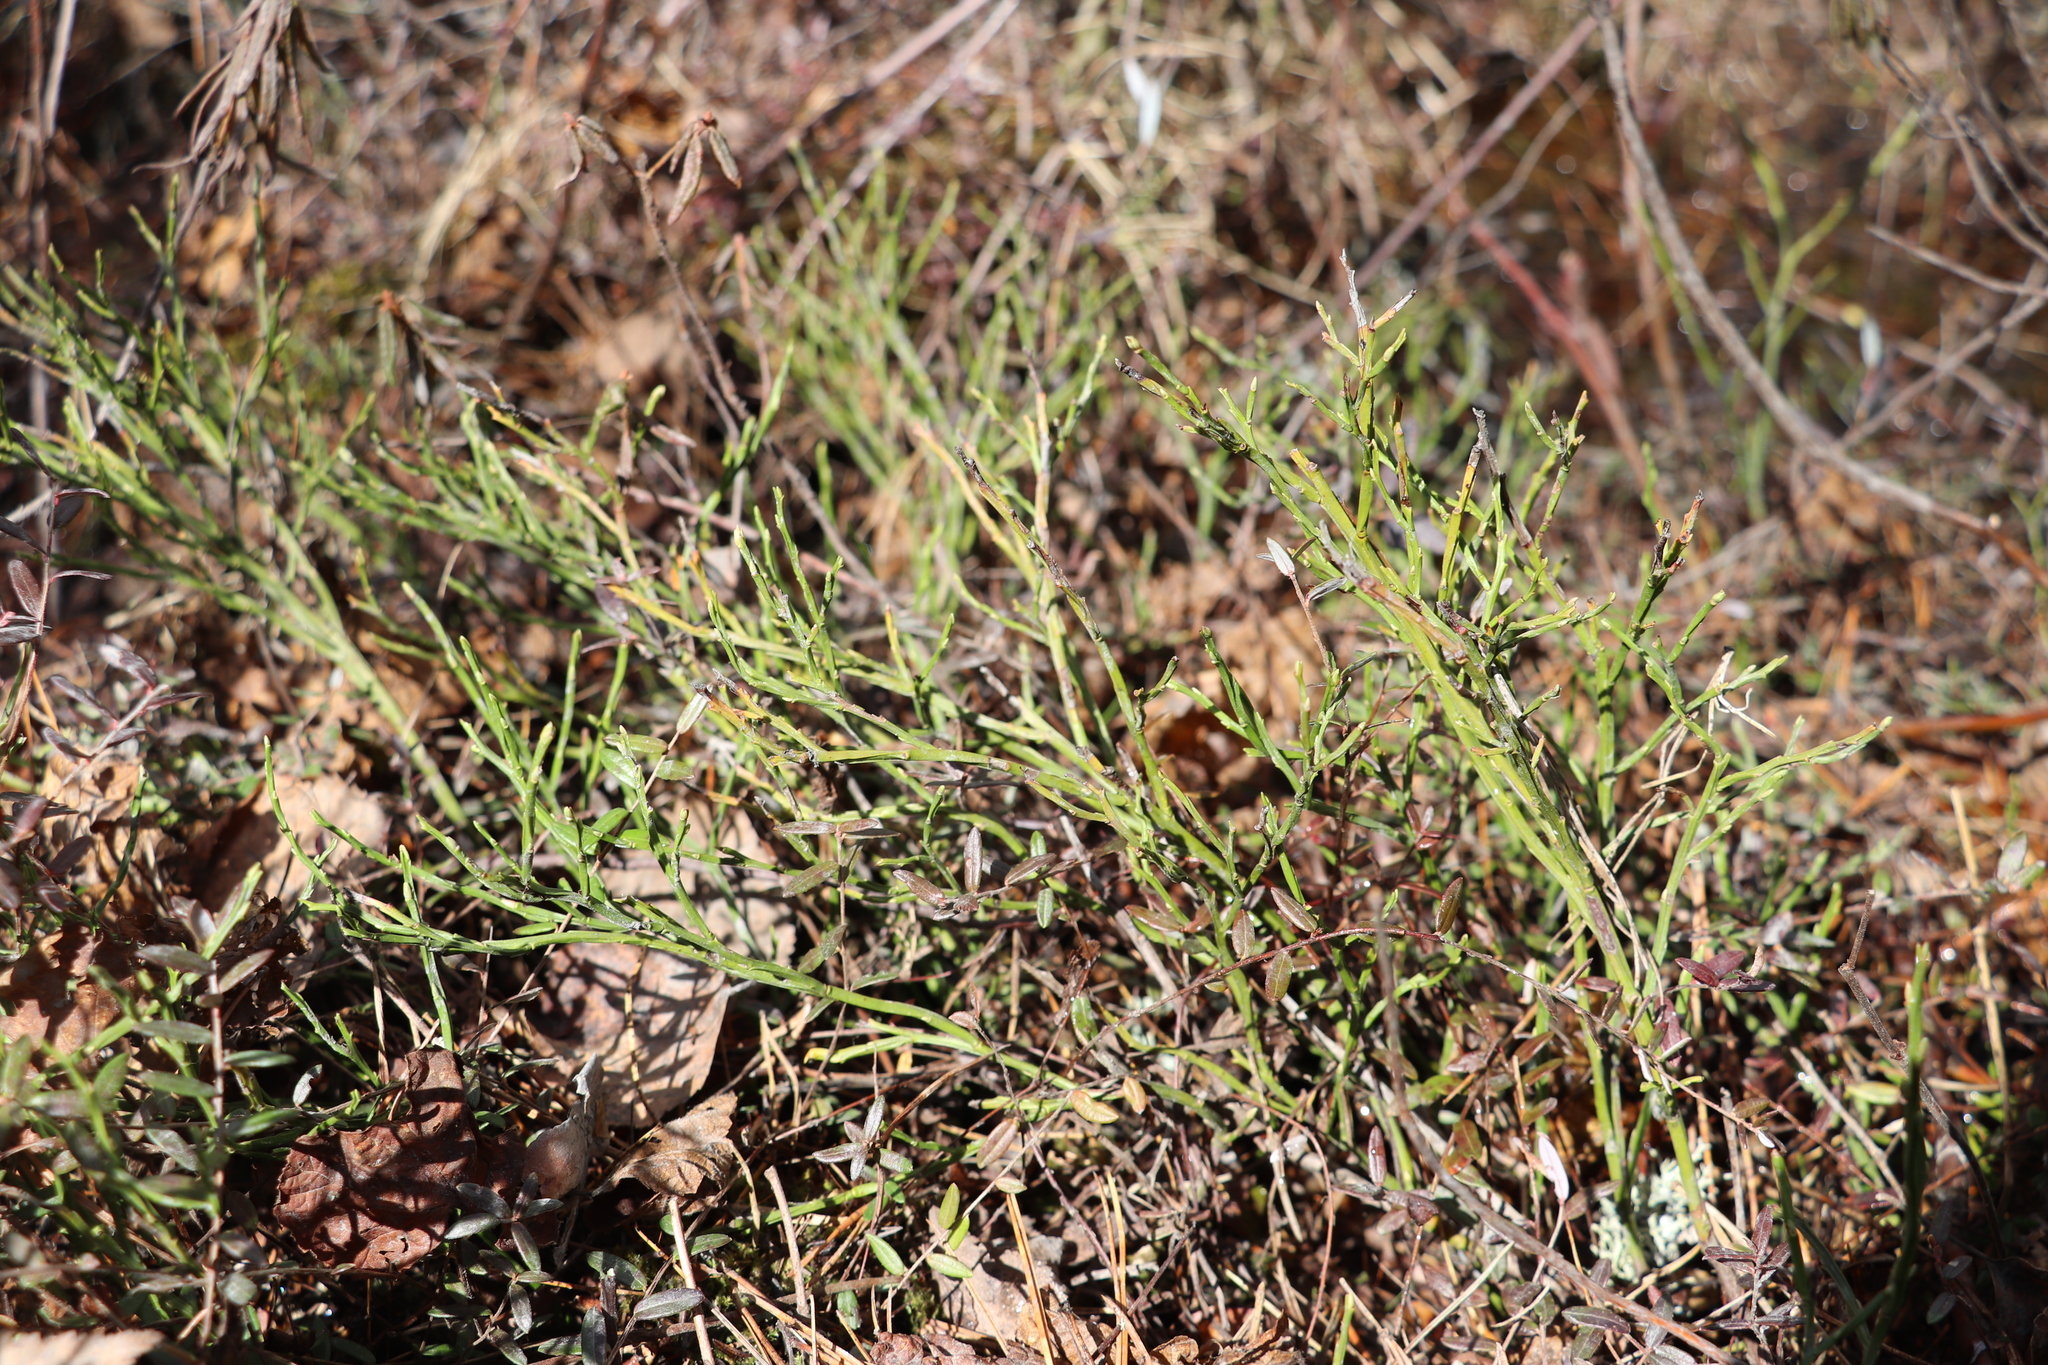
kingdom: Plantae
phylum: Tracheophyta
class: Magnoliopsida
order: Ericales
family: Ericaceae
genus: Vaccinium
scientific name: Vaccinium myrtillus
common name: Bilberry
